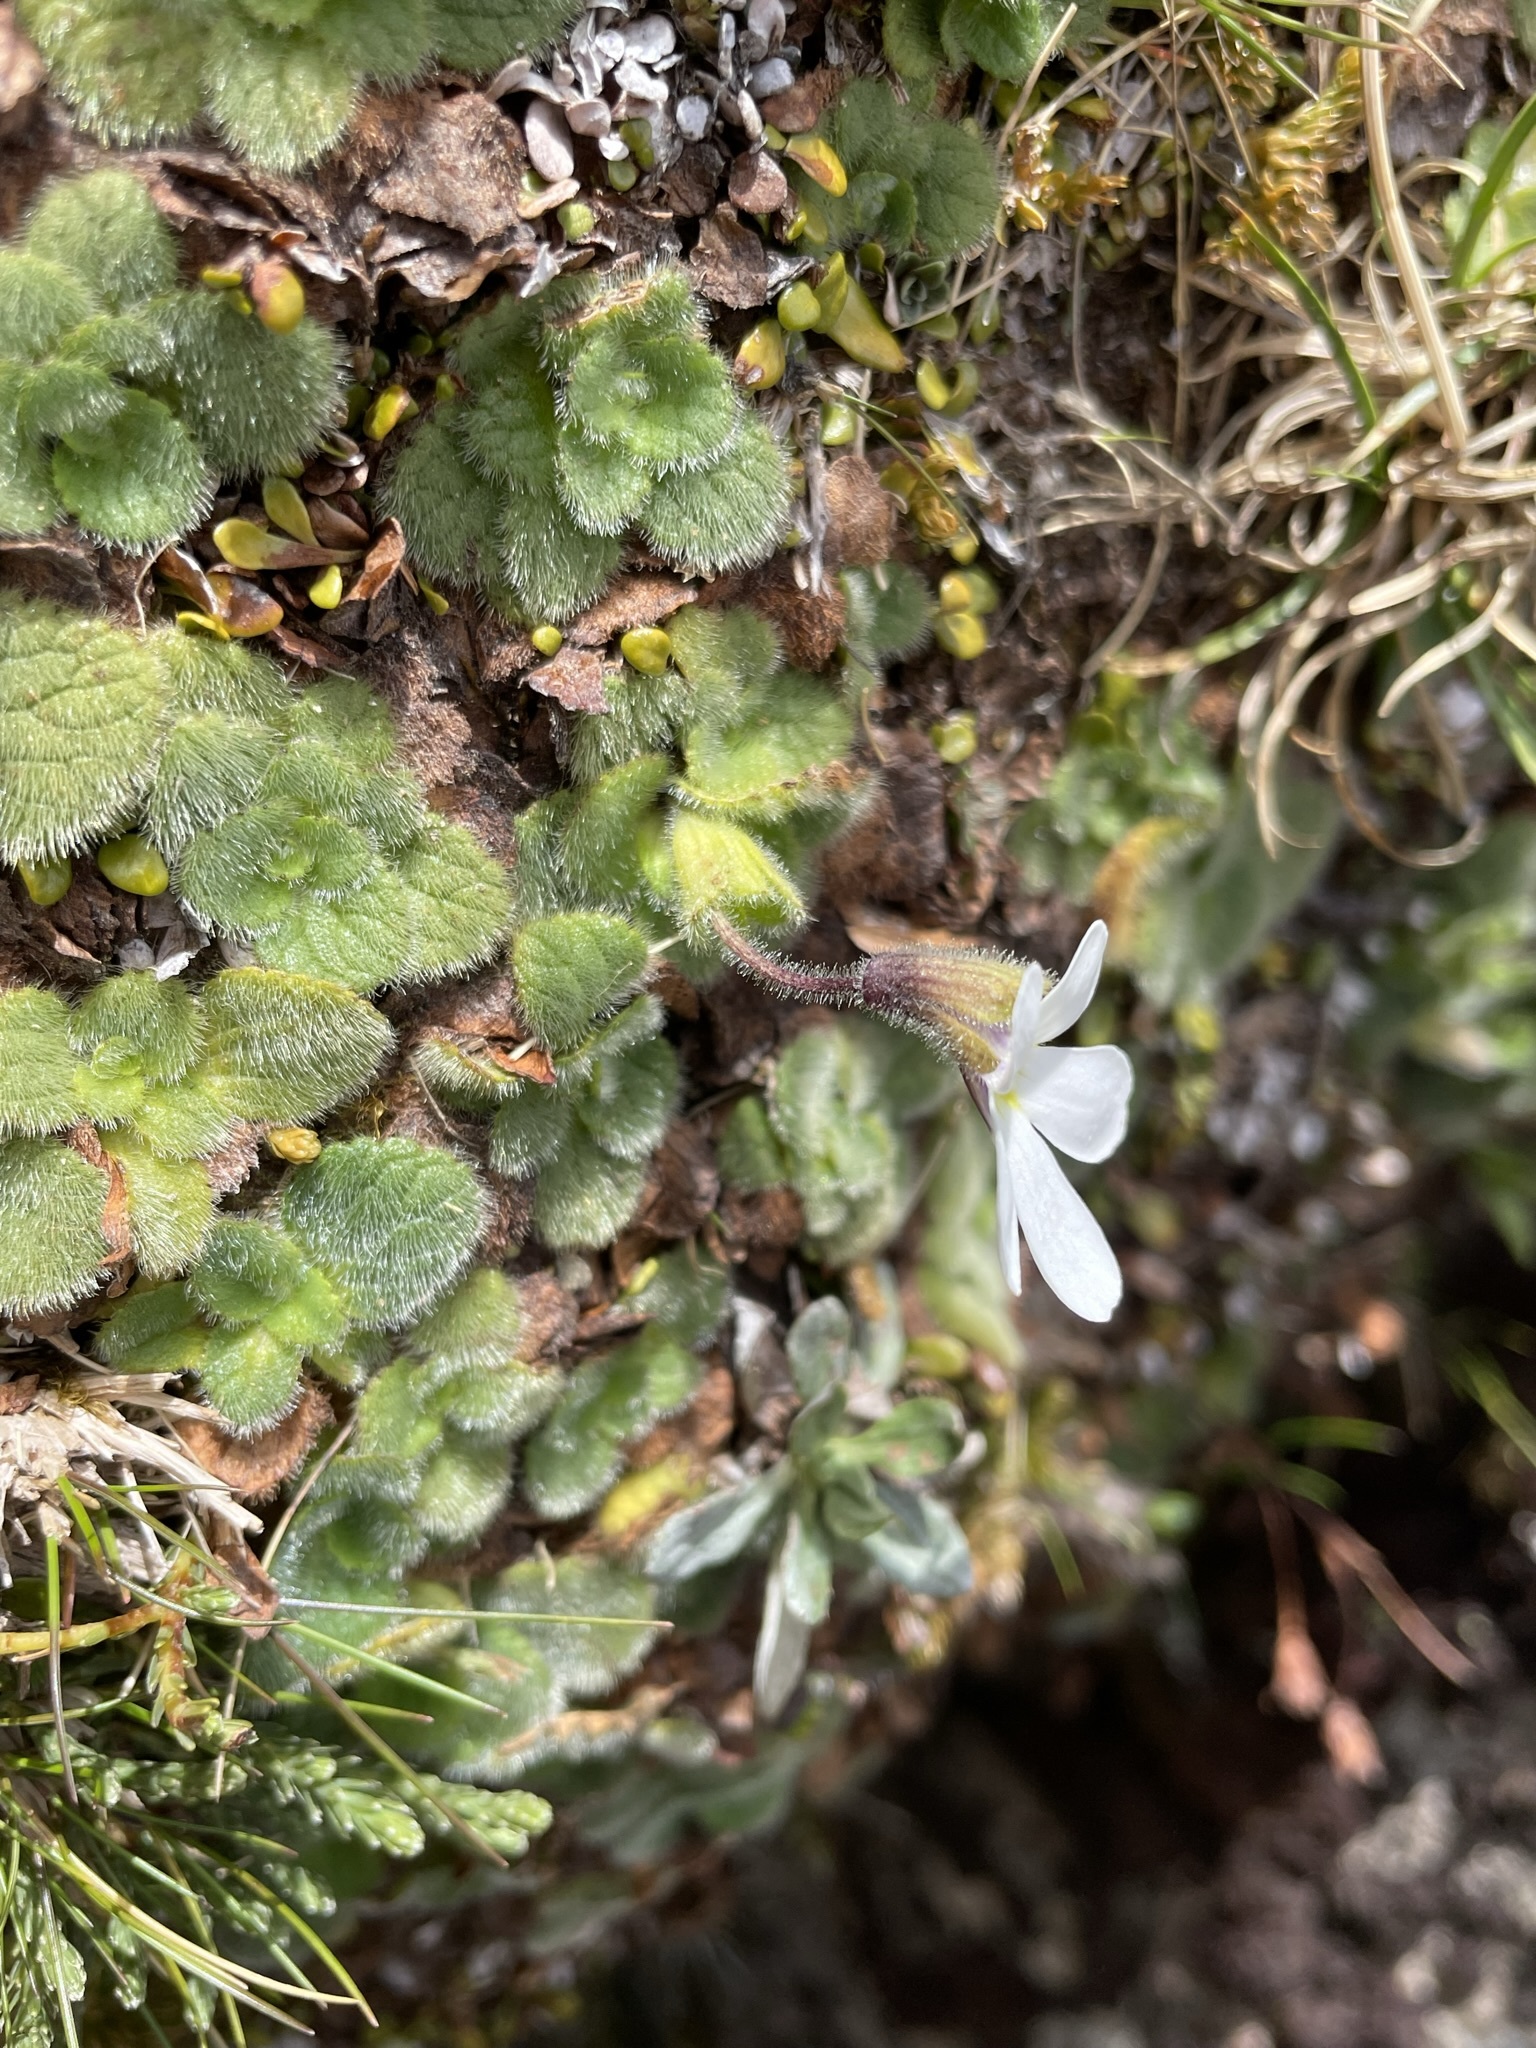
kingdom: Plantae
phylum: Tracheophyta
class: Magnoliopsida
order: Lamiales
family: Plantaginaceae
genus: Ourisia
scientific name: Ourisia simpsonii
